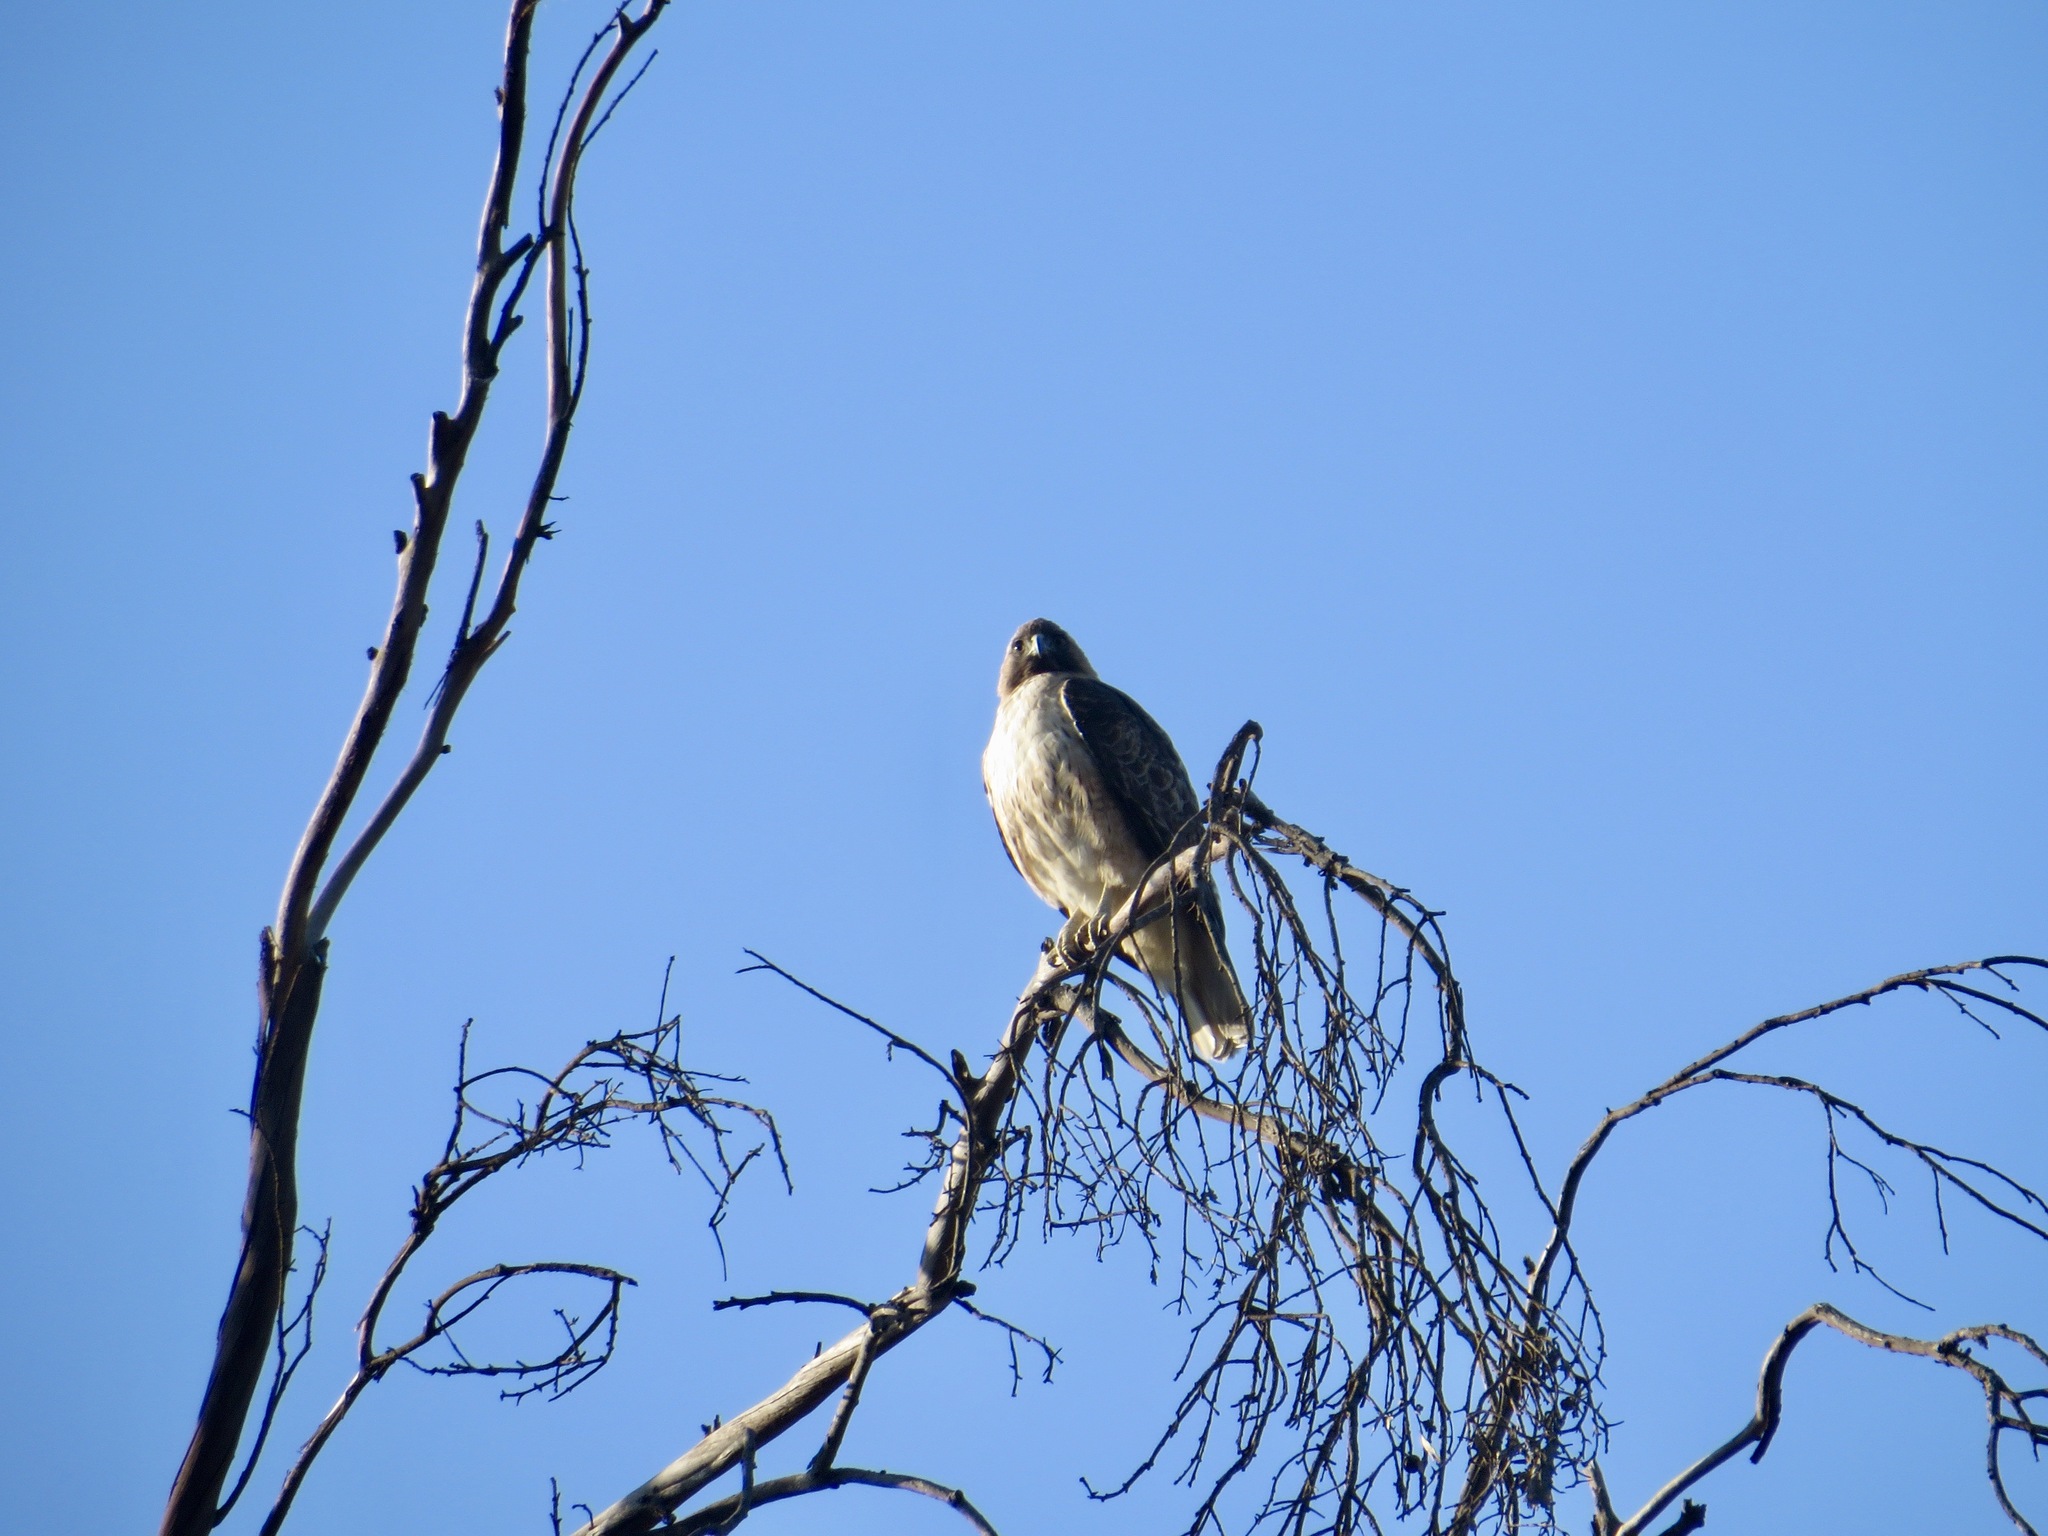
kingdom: Animalia
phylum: Chordata
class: Aves
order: Accipitriformes
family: Accipitridae
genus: Buteo
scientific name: Buteo jamaicensis
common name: Red-tailed hawk
